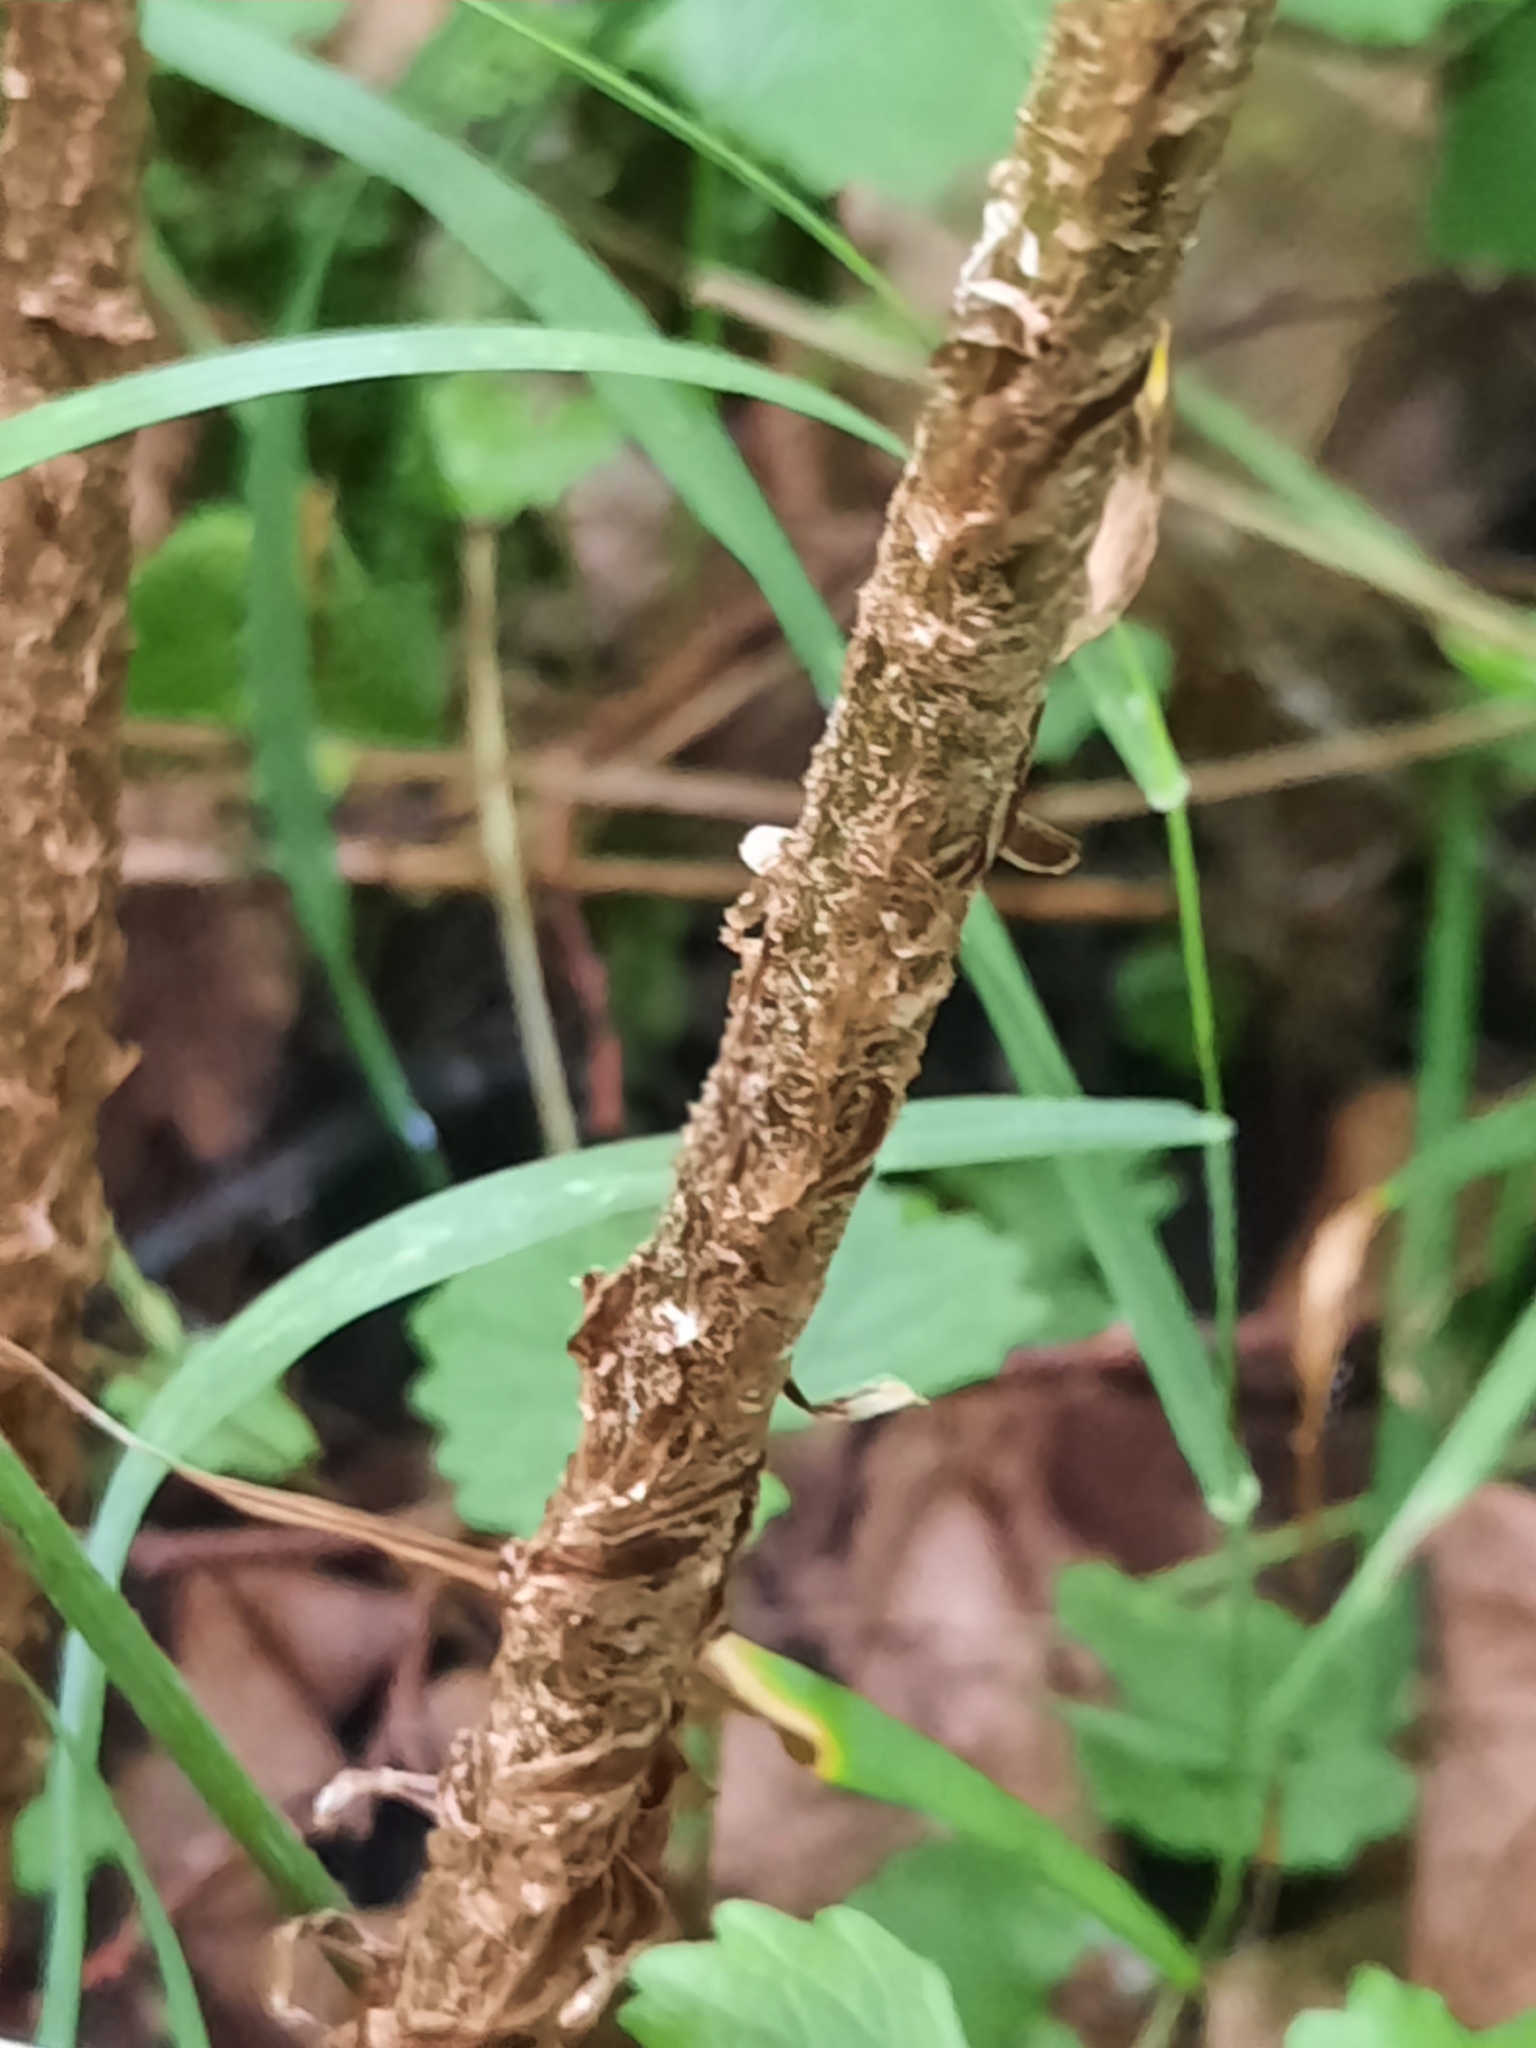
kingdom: Plantae
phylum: Tracheophyta
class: Polypodiopsida
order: Polypodiales
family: Dryopteridaceae
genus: Dryopteris
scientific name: Dryopteris goldieana
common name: Goldie's fern
